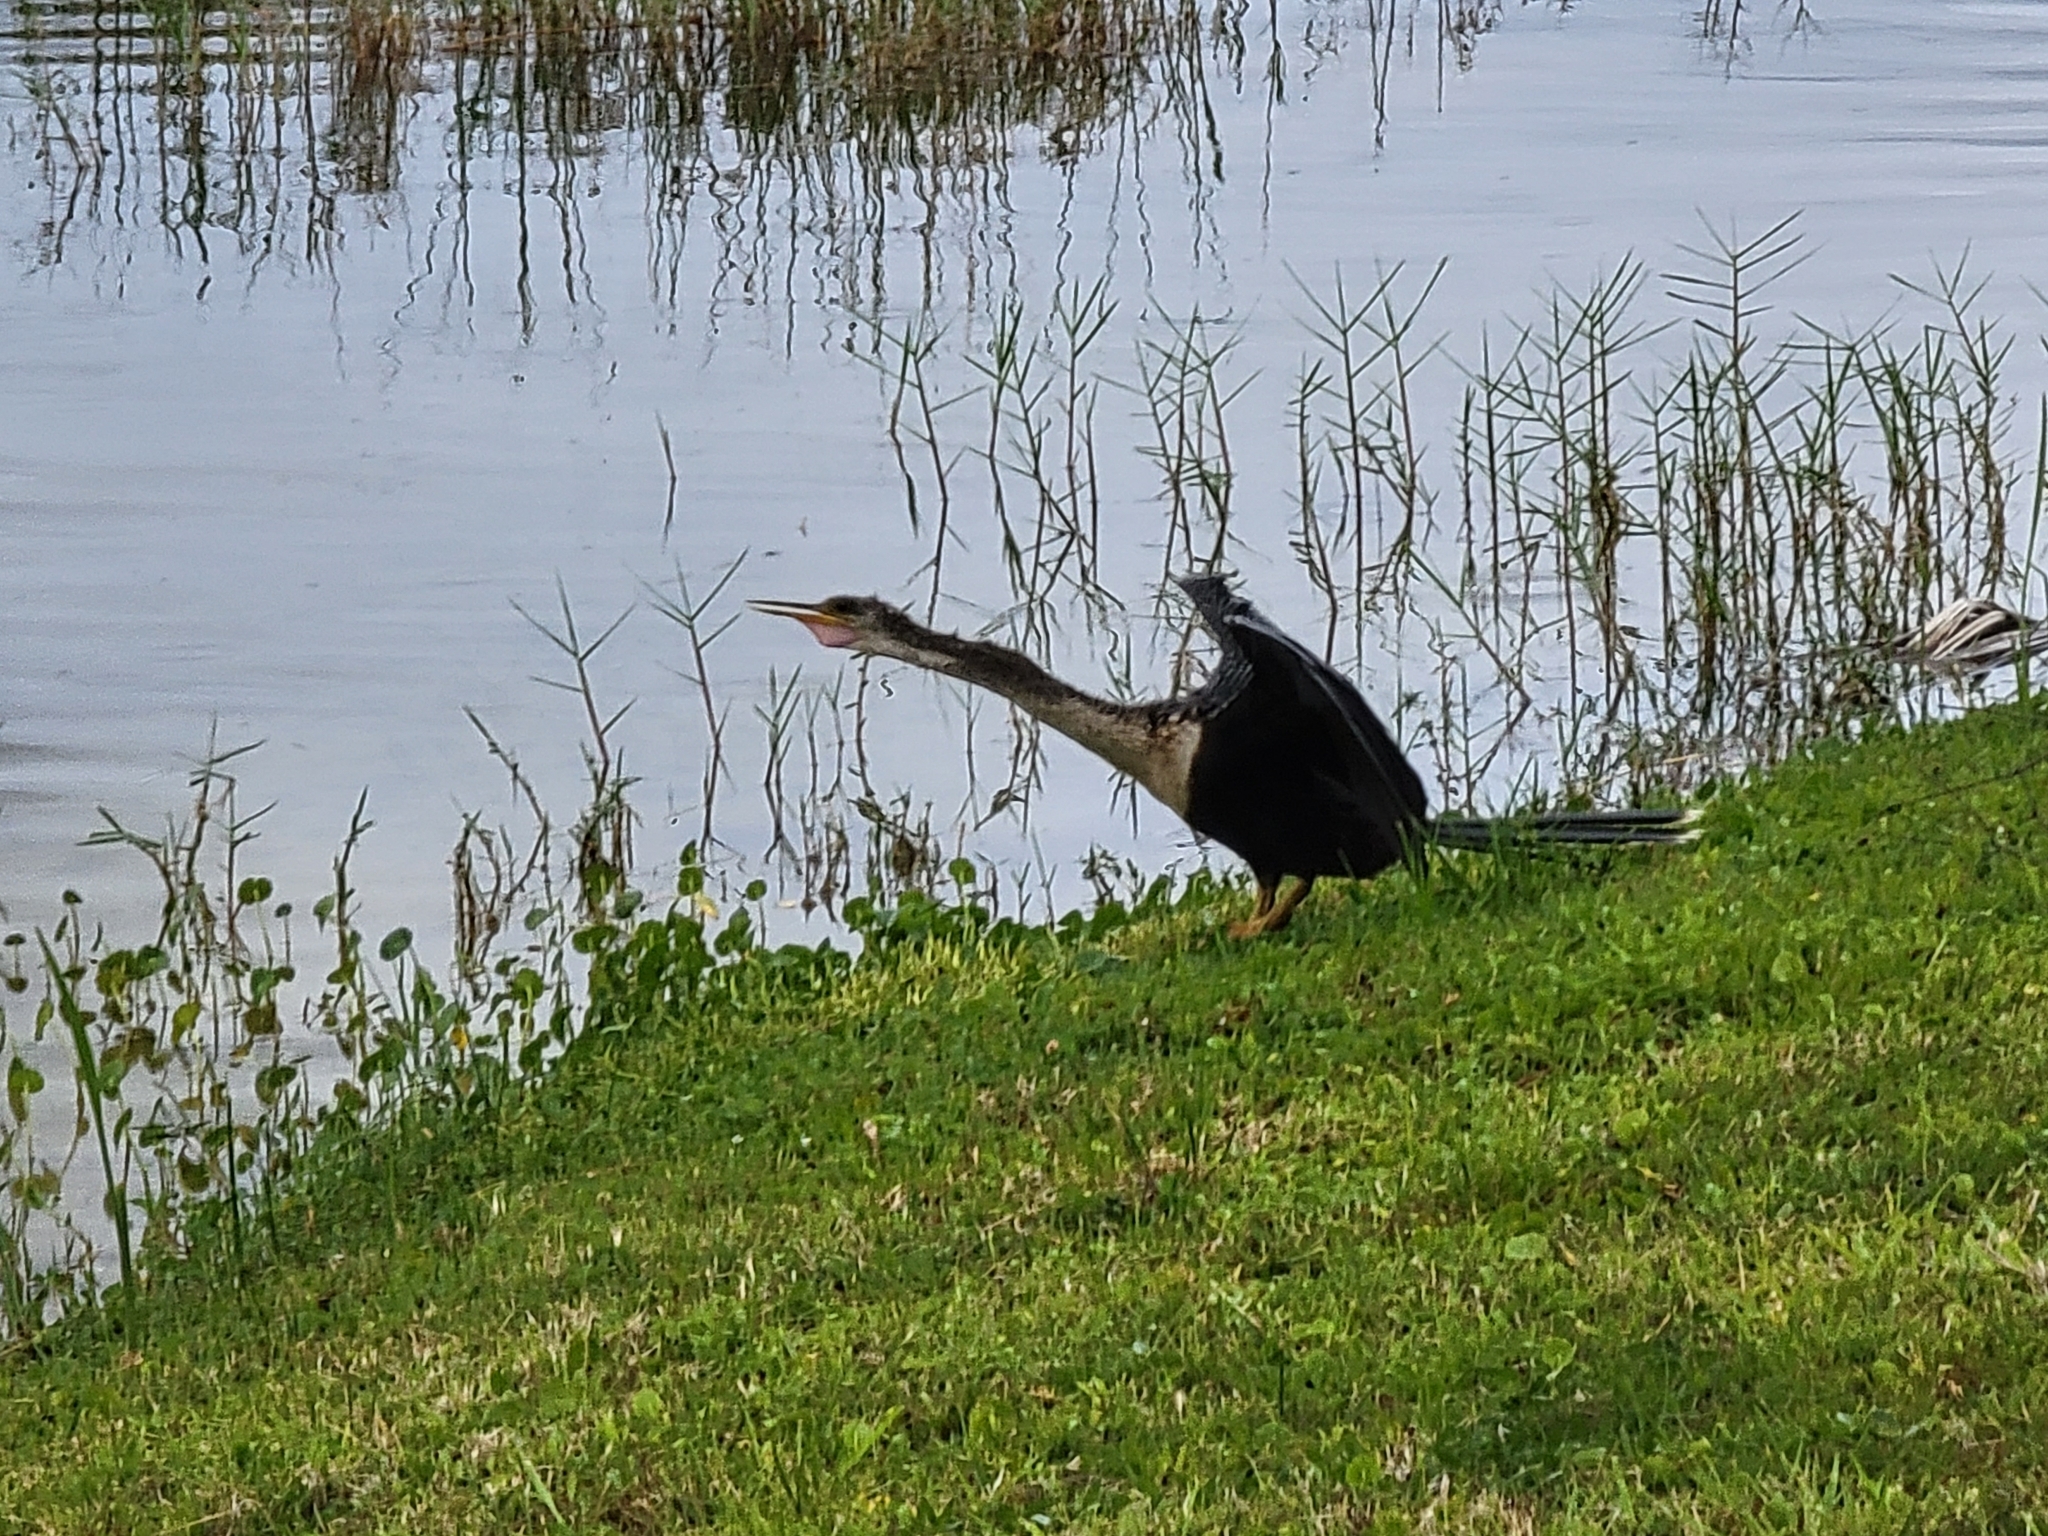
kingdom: Animalia
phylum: Chordata
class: Aves
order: Suliformes
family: Anhingidae
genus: Anhinga
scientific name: Anhinga anhinga
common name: Anhinga
